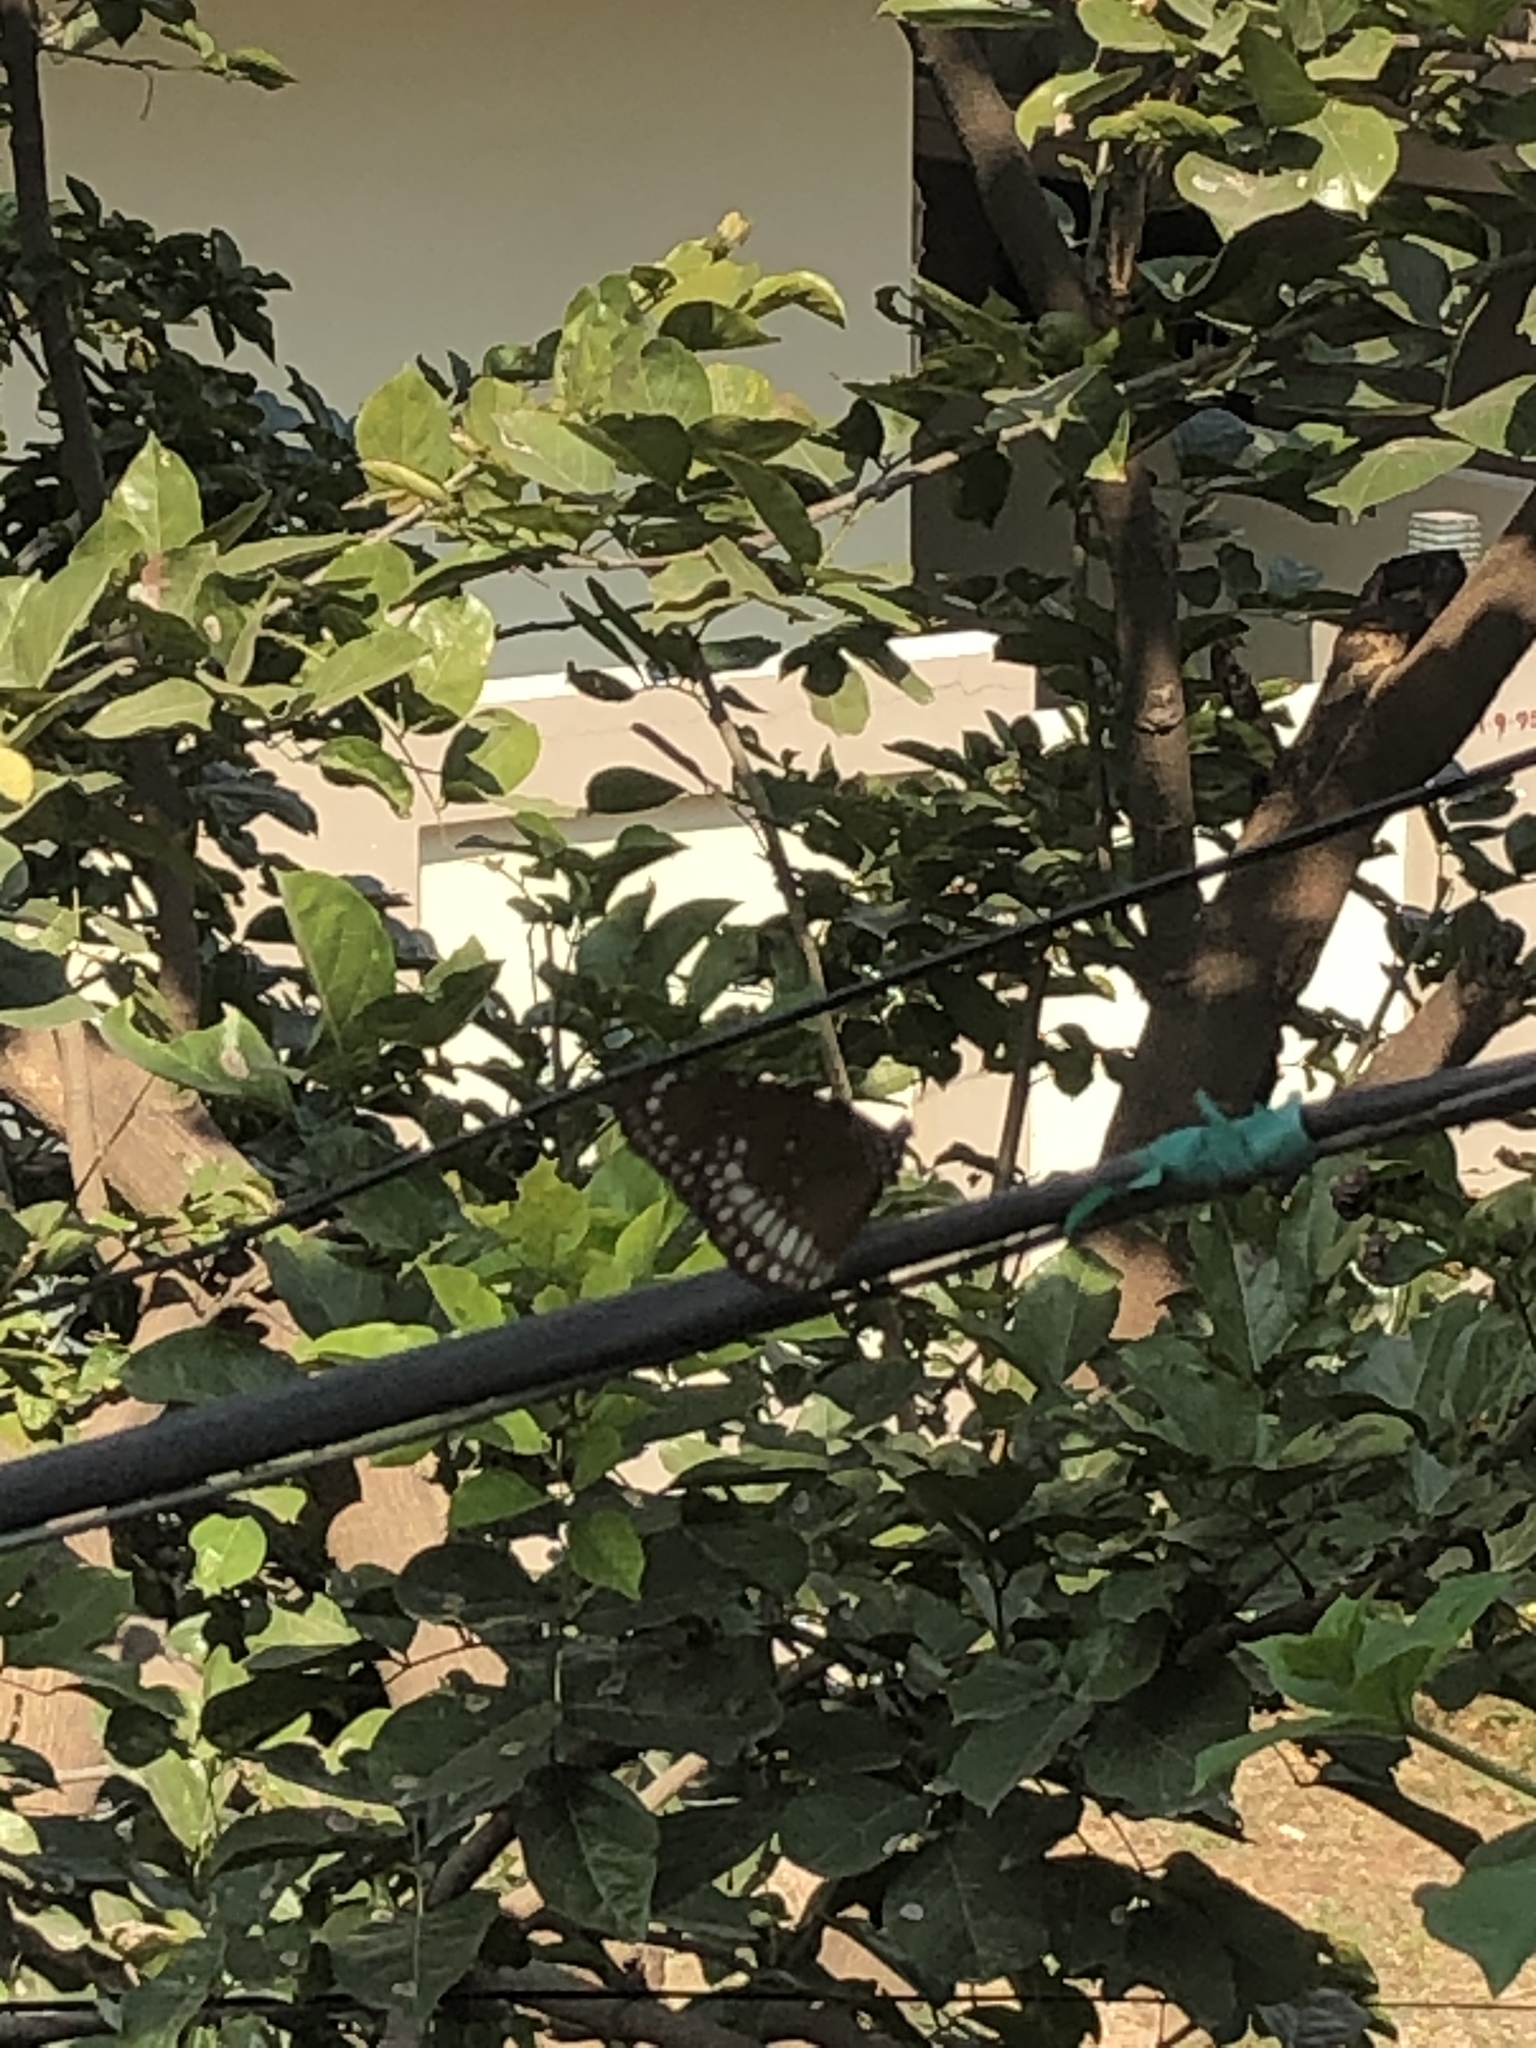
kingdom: Animalia
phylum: Arthropoda
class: Insecta
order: Lepidoptera
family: Nymphalidae
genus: Euploea
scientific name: Euploea core
